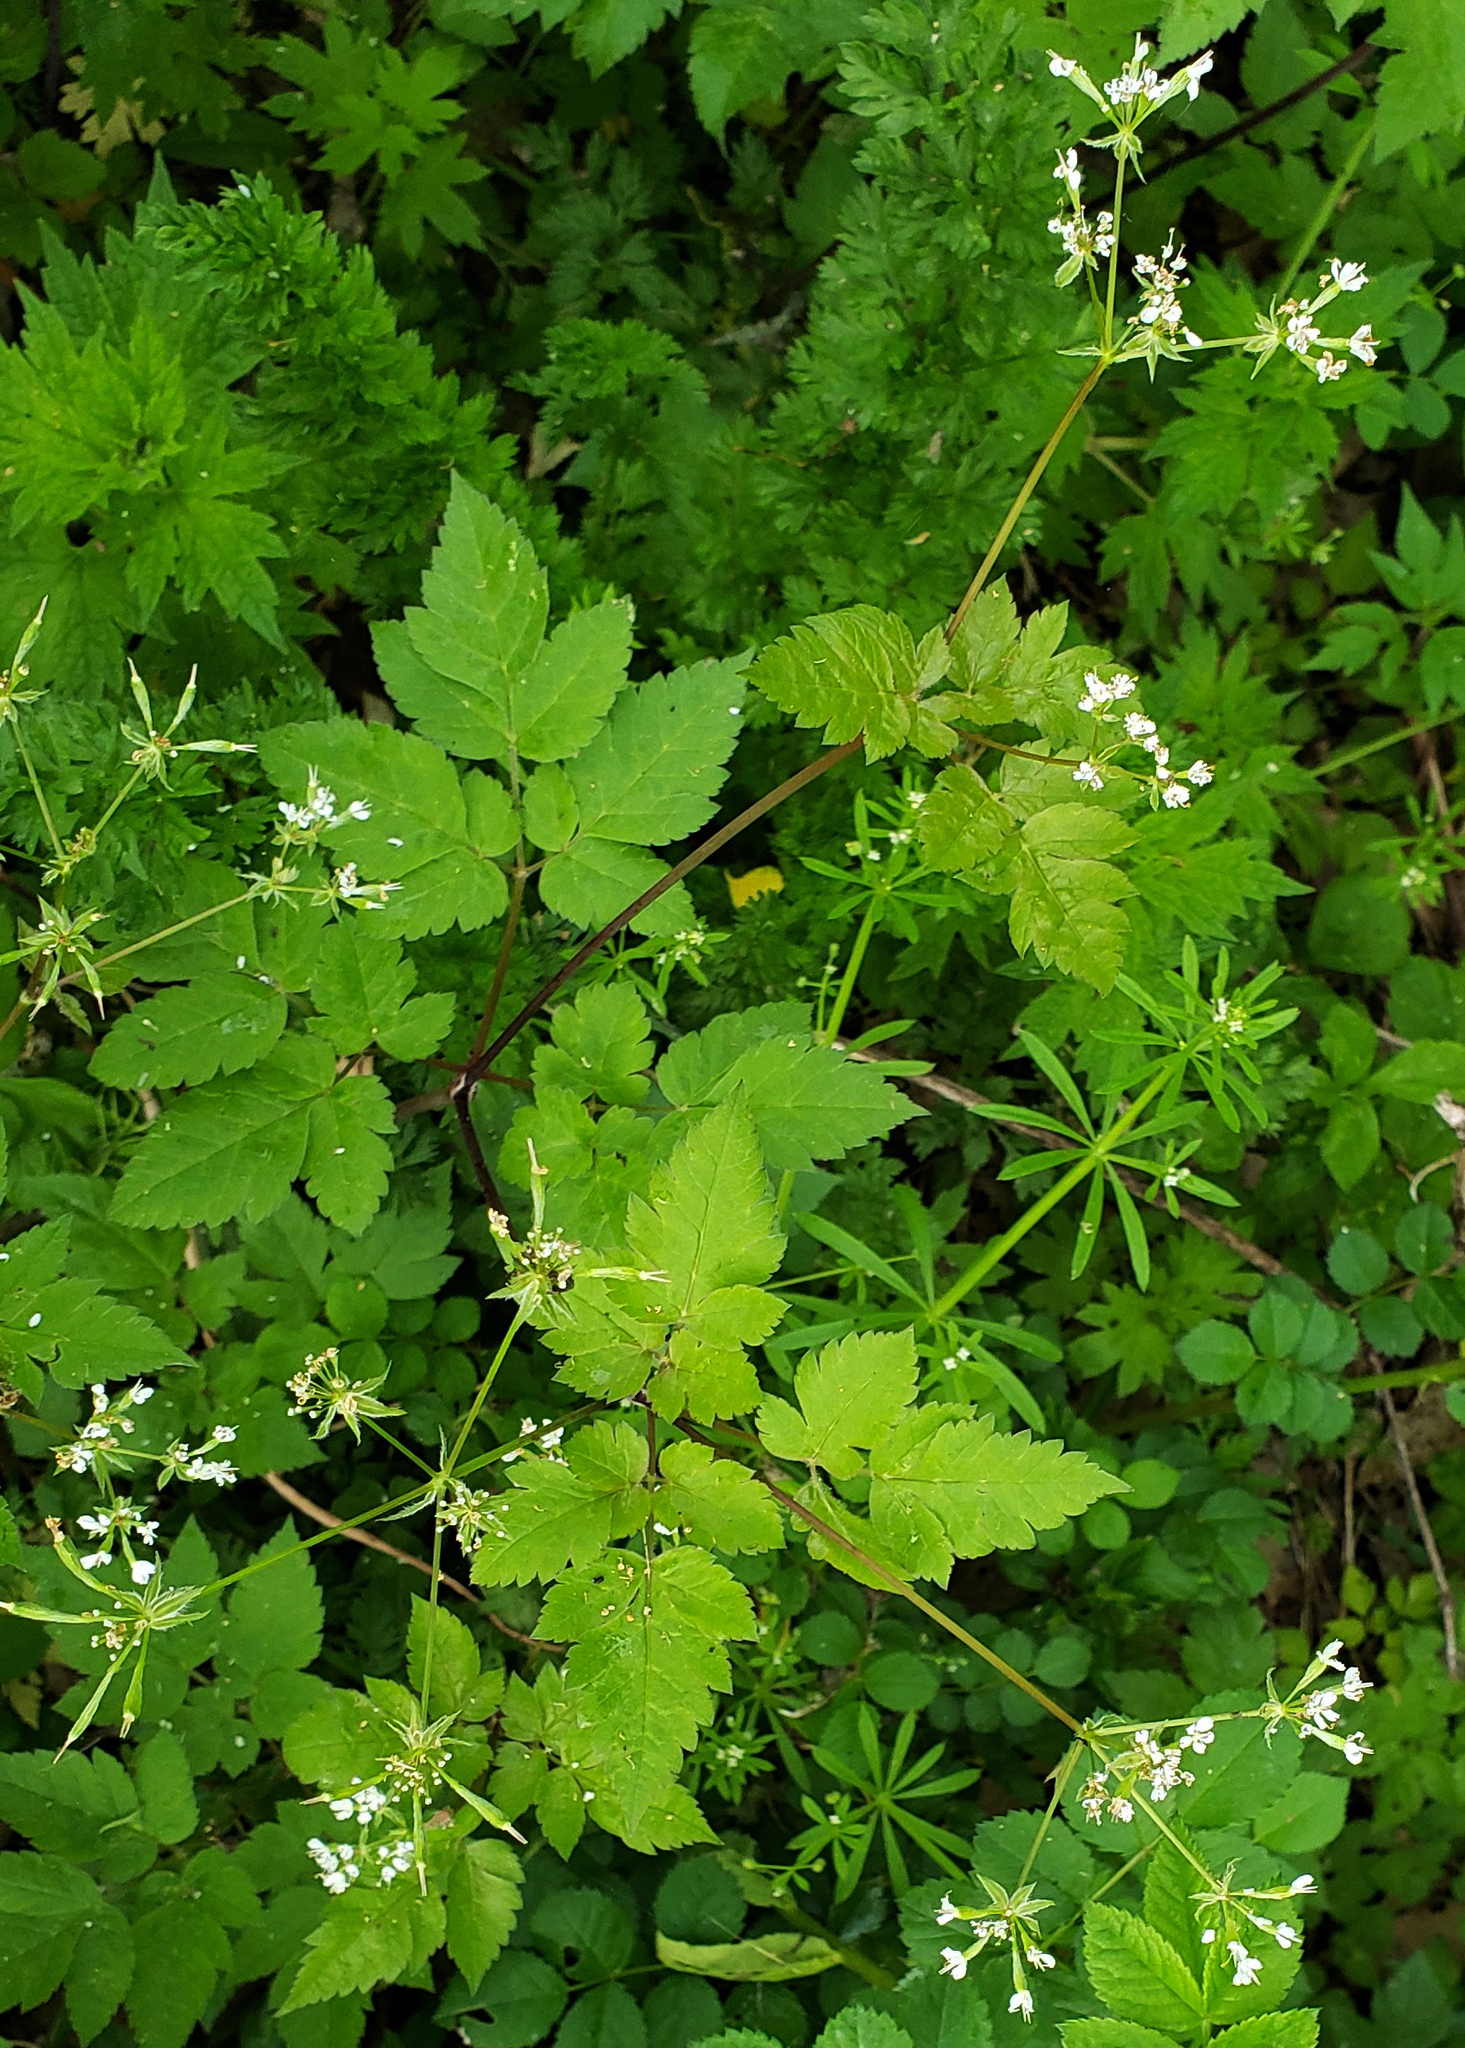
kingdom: Plantae
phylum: Tracheophyta
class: Magnoliopsida
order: Apiales
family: Apiaceae
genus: Osmorhiza
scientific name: Osmorhiza longistylis
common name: Smooth sweet cicely
